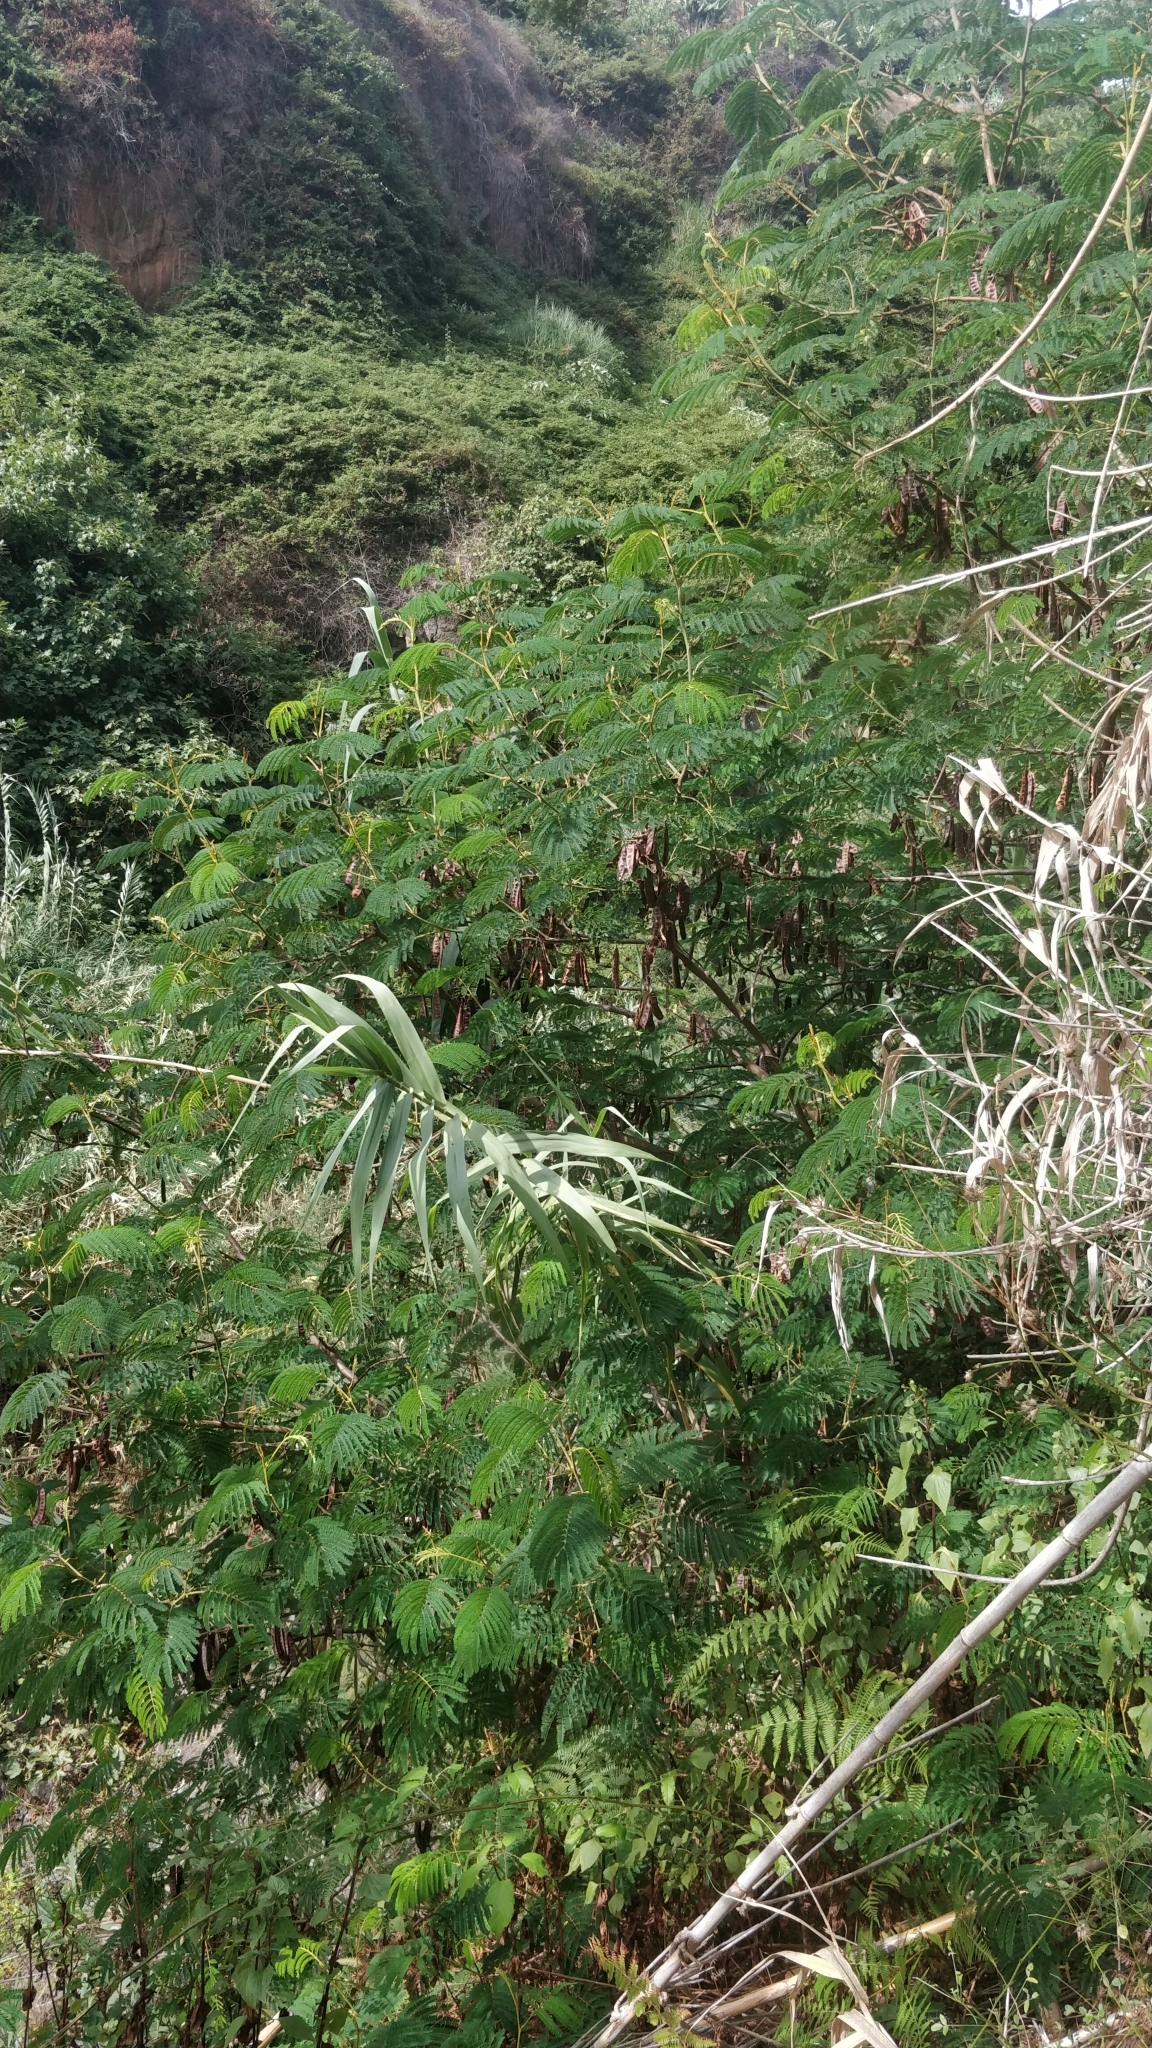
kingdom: Plantae
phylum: Tracheophyta
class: Magnoliopsida
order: Fabales
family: Fabaceae
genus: Paraserianthes
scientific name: Paraserianthes lophantha
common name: Plume albizia
